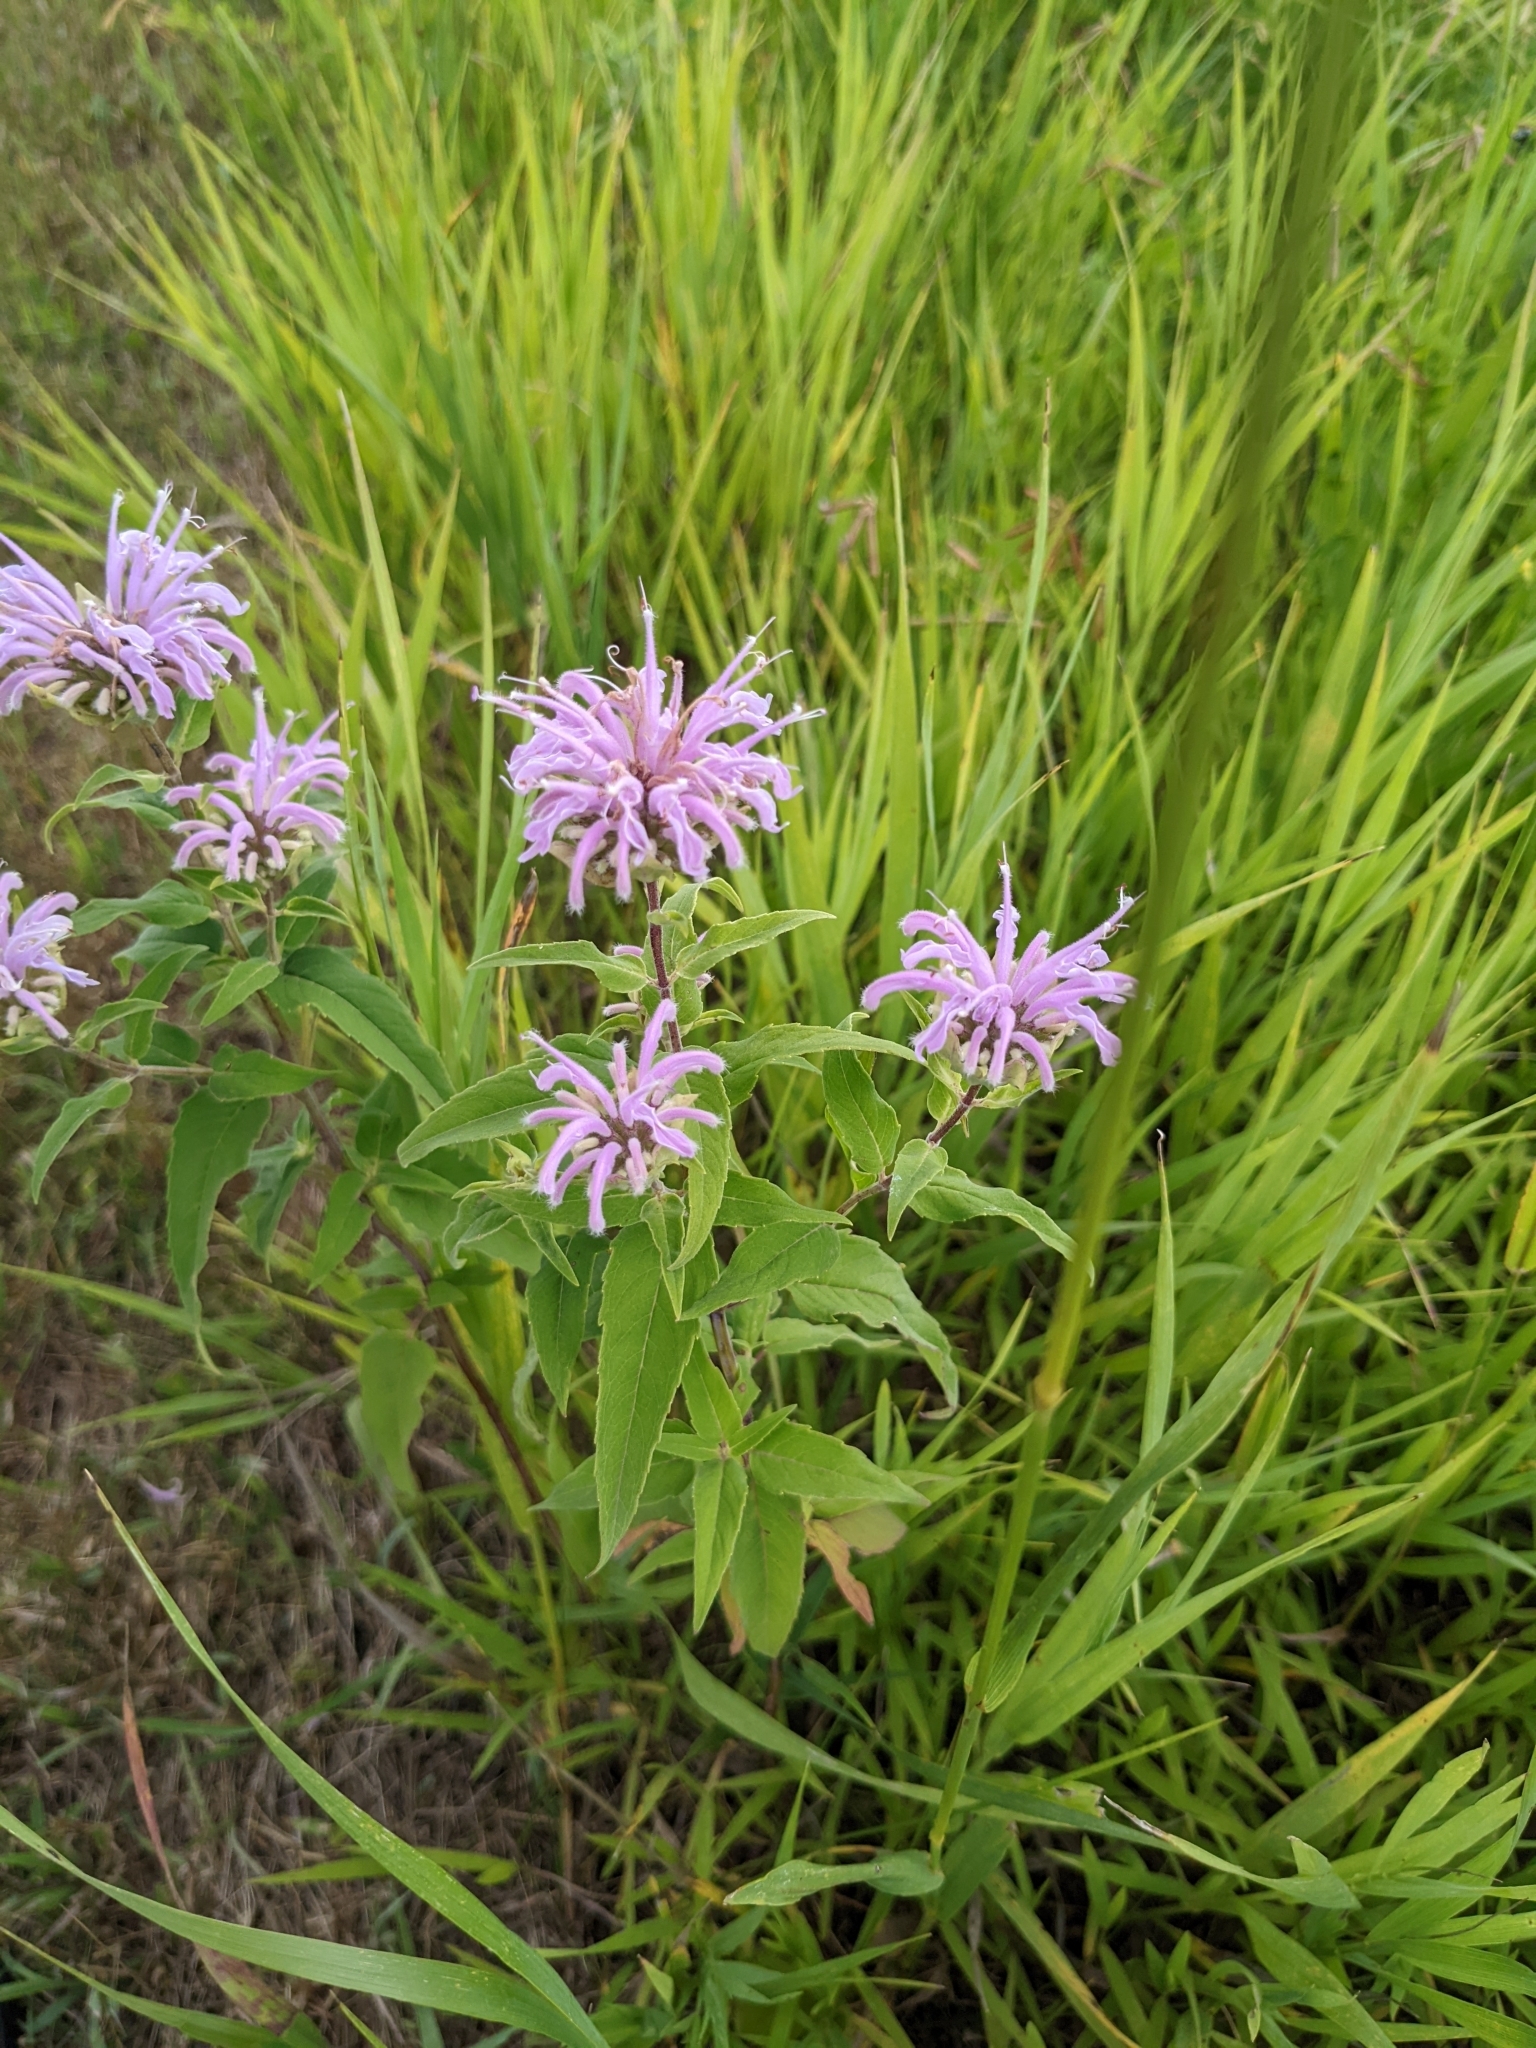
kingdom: Plantae
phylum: Tracheophyta
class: Magnoliopsida
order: Lamiales
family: Lamiaceae
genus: Monarda
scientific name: Monarda fistulosa
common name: Purple beebalm
